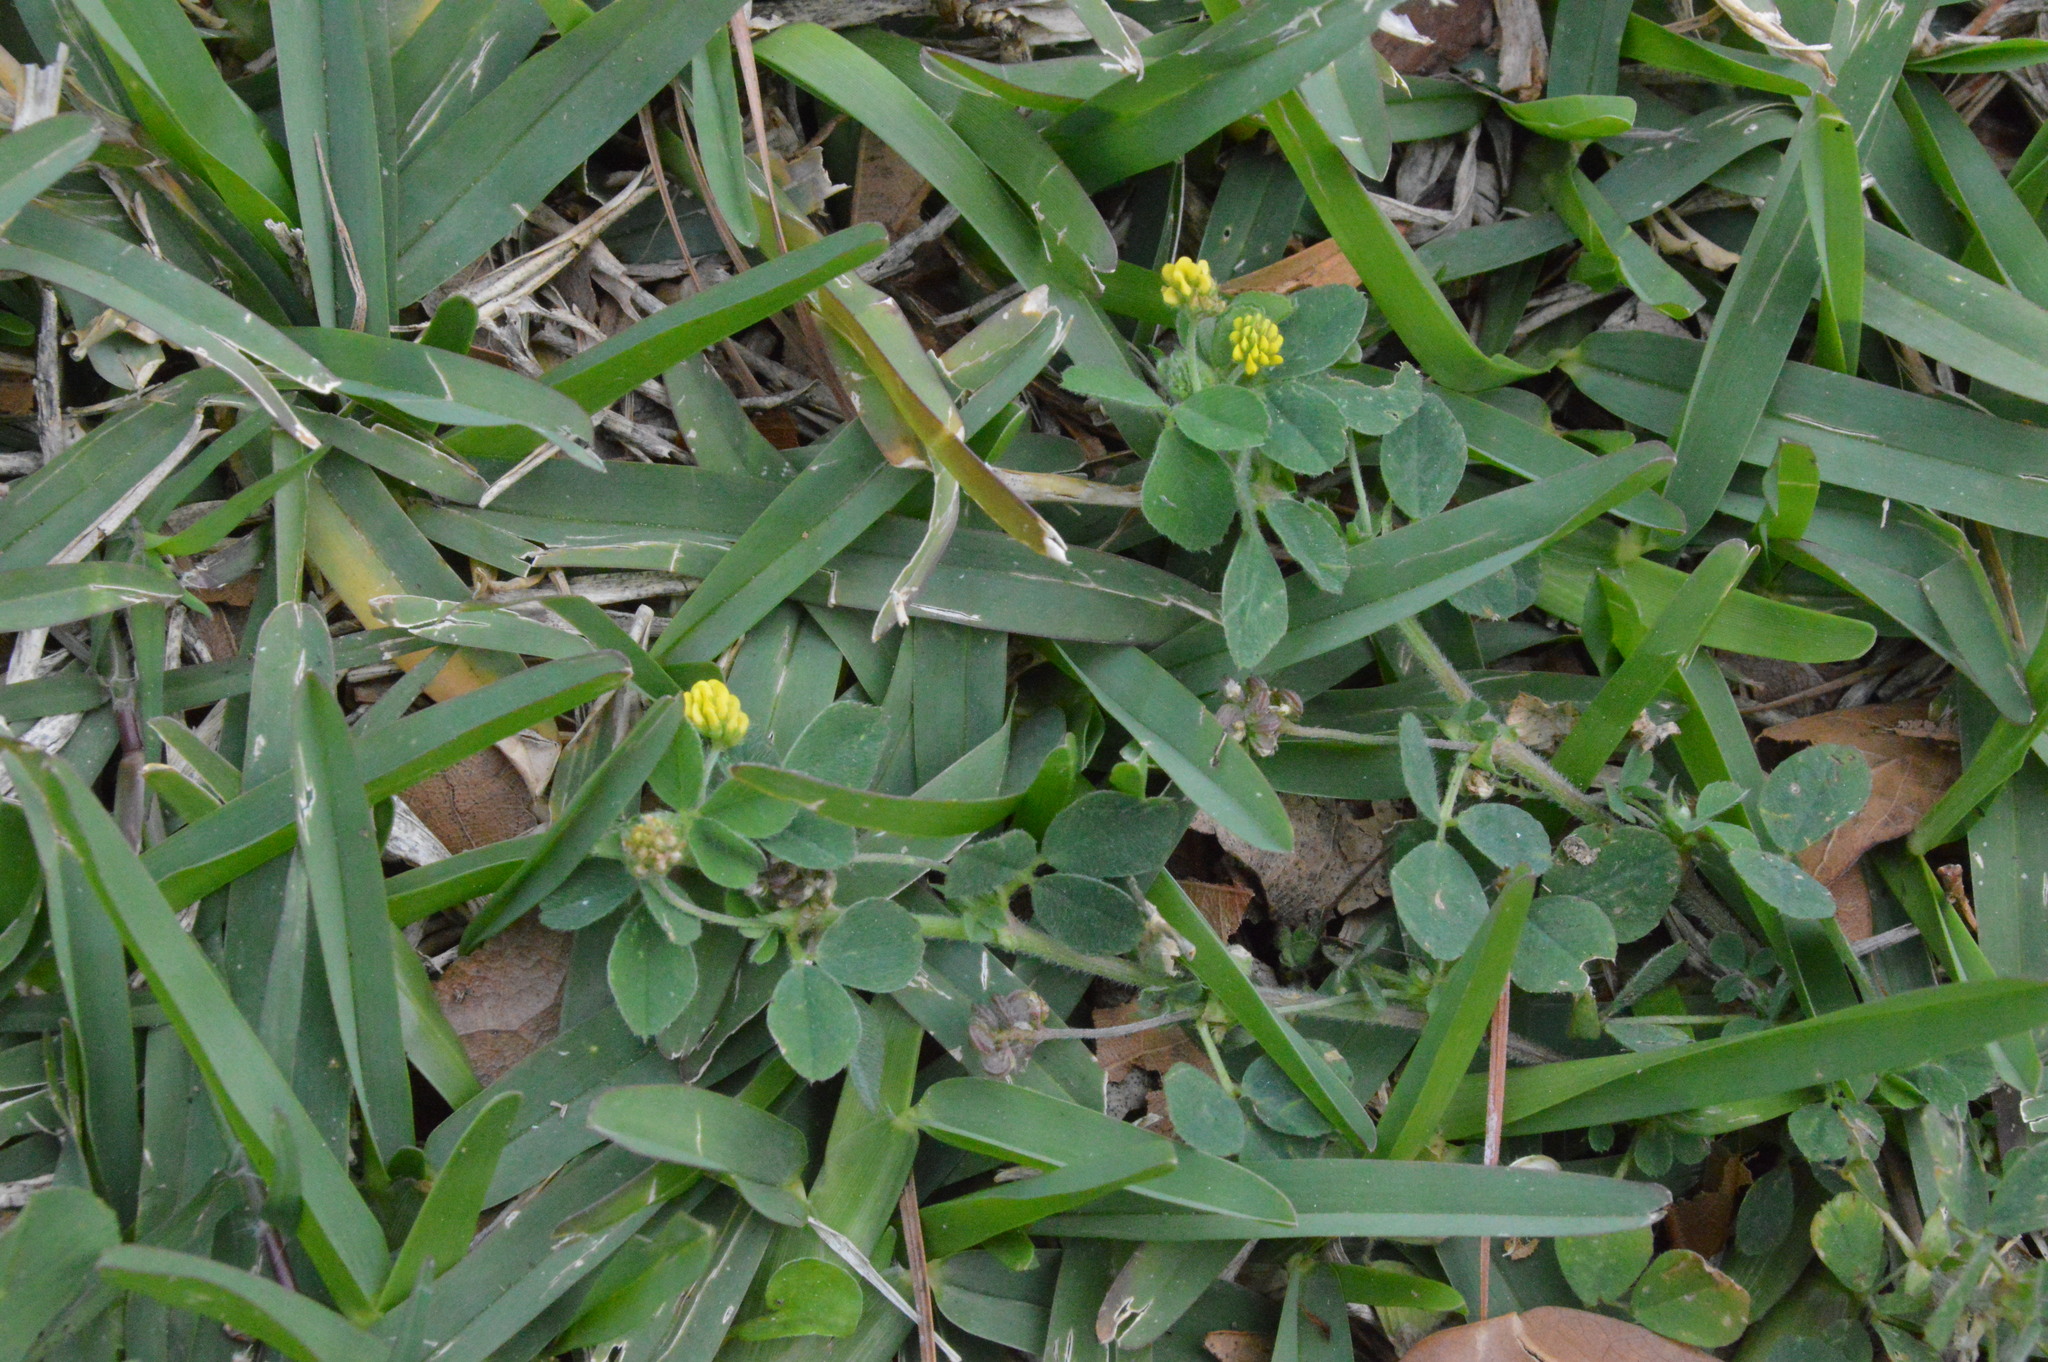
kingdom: Plantae
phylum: Tracheophyta
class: Magnoliopsida
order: Fabales
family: Fabaceae
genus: Medicago
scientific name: Medicago lupulina
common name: Black medick
